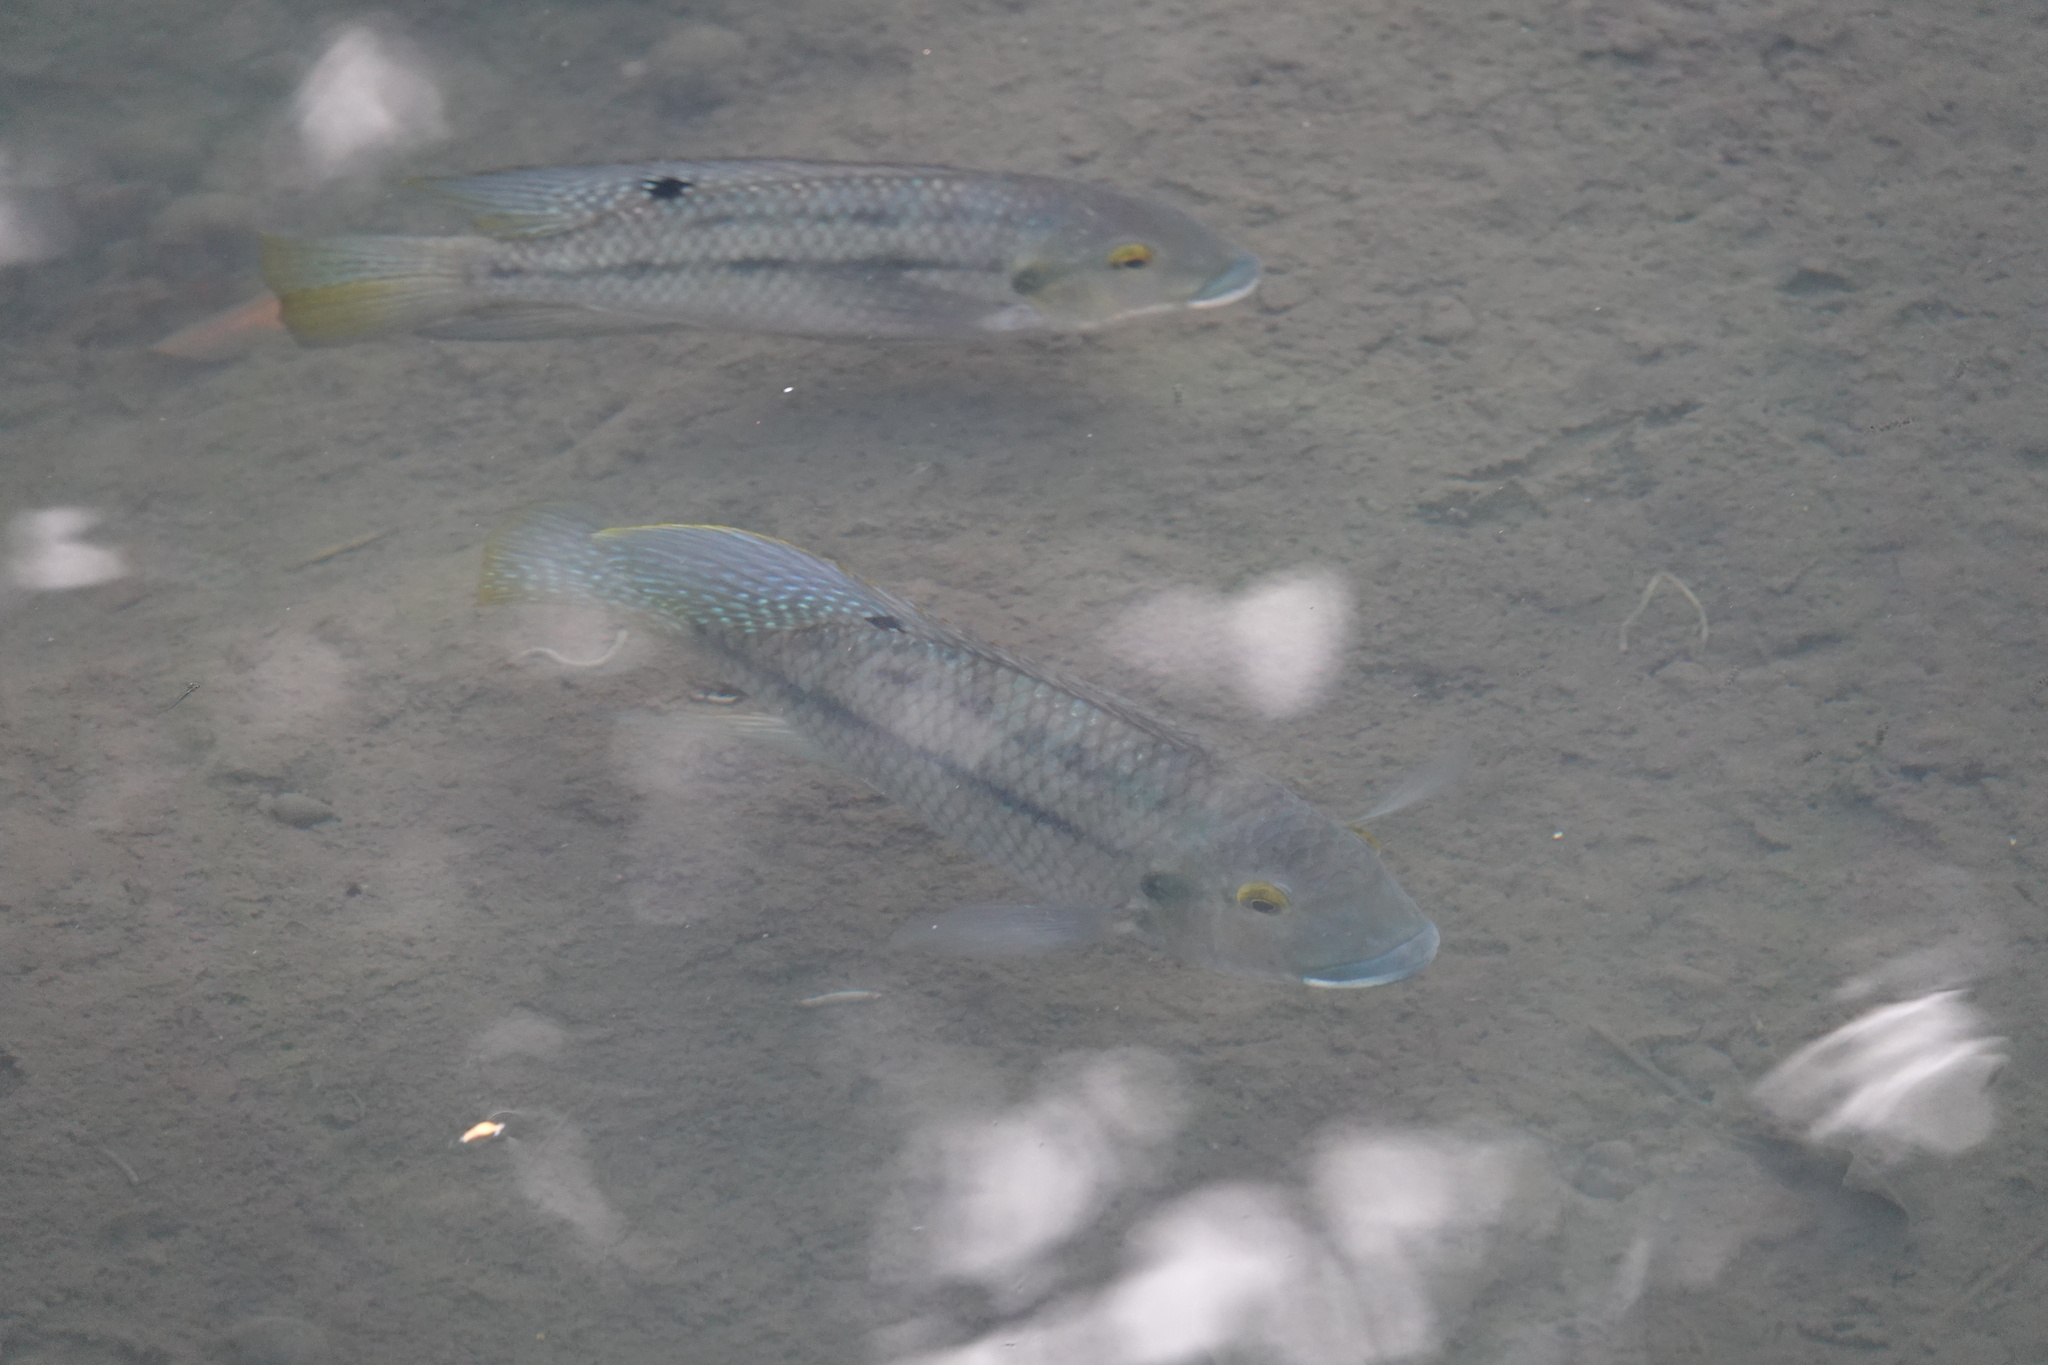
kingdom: Animalia
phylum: Chordata
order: Perciformes
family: Cichlidae
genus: Coptodon
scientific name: Coptodon zillii
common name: Redbelly tilapia
